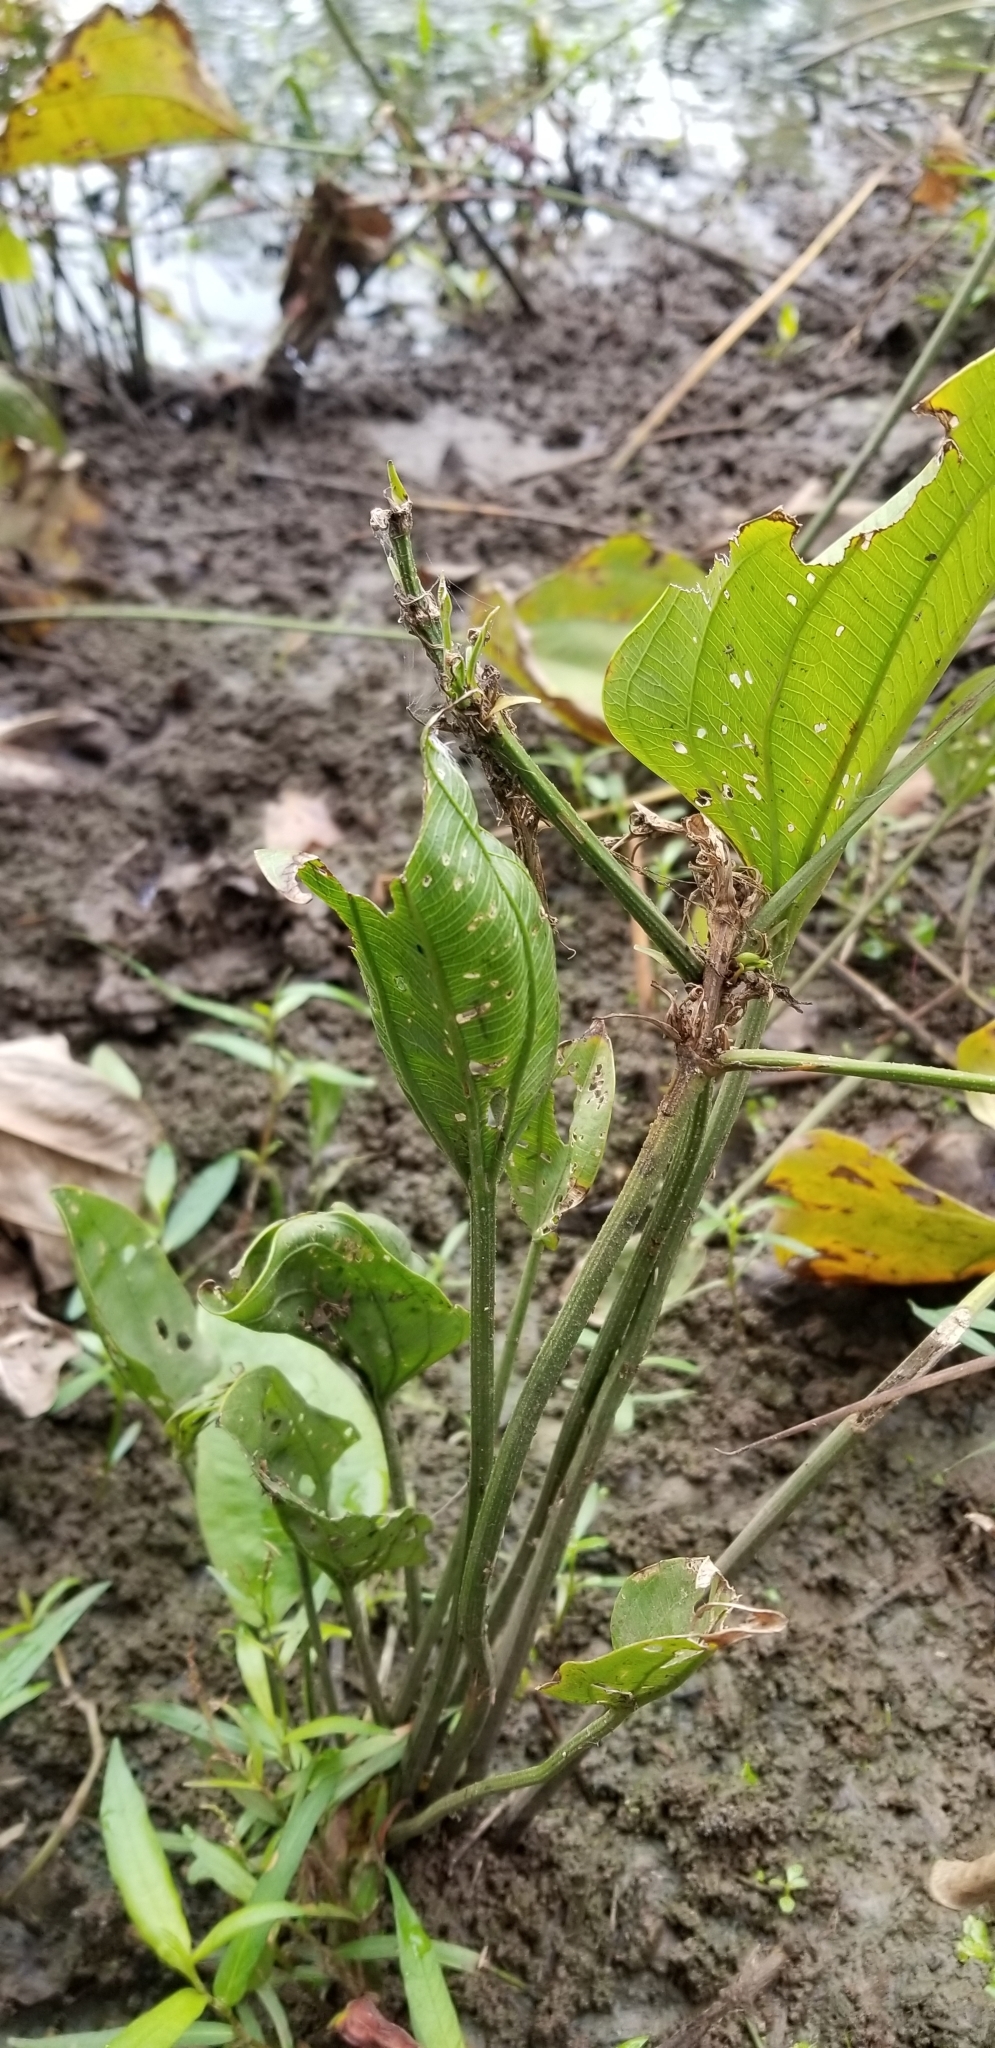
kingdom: Plantae
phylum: Tracheophyta
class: Liliopsida
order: Commelinales
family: Pontederiaceae
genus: Pontederia
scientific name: Pontederia cordata
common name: Pickerelweed
